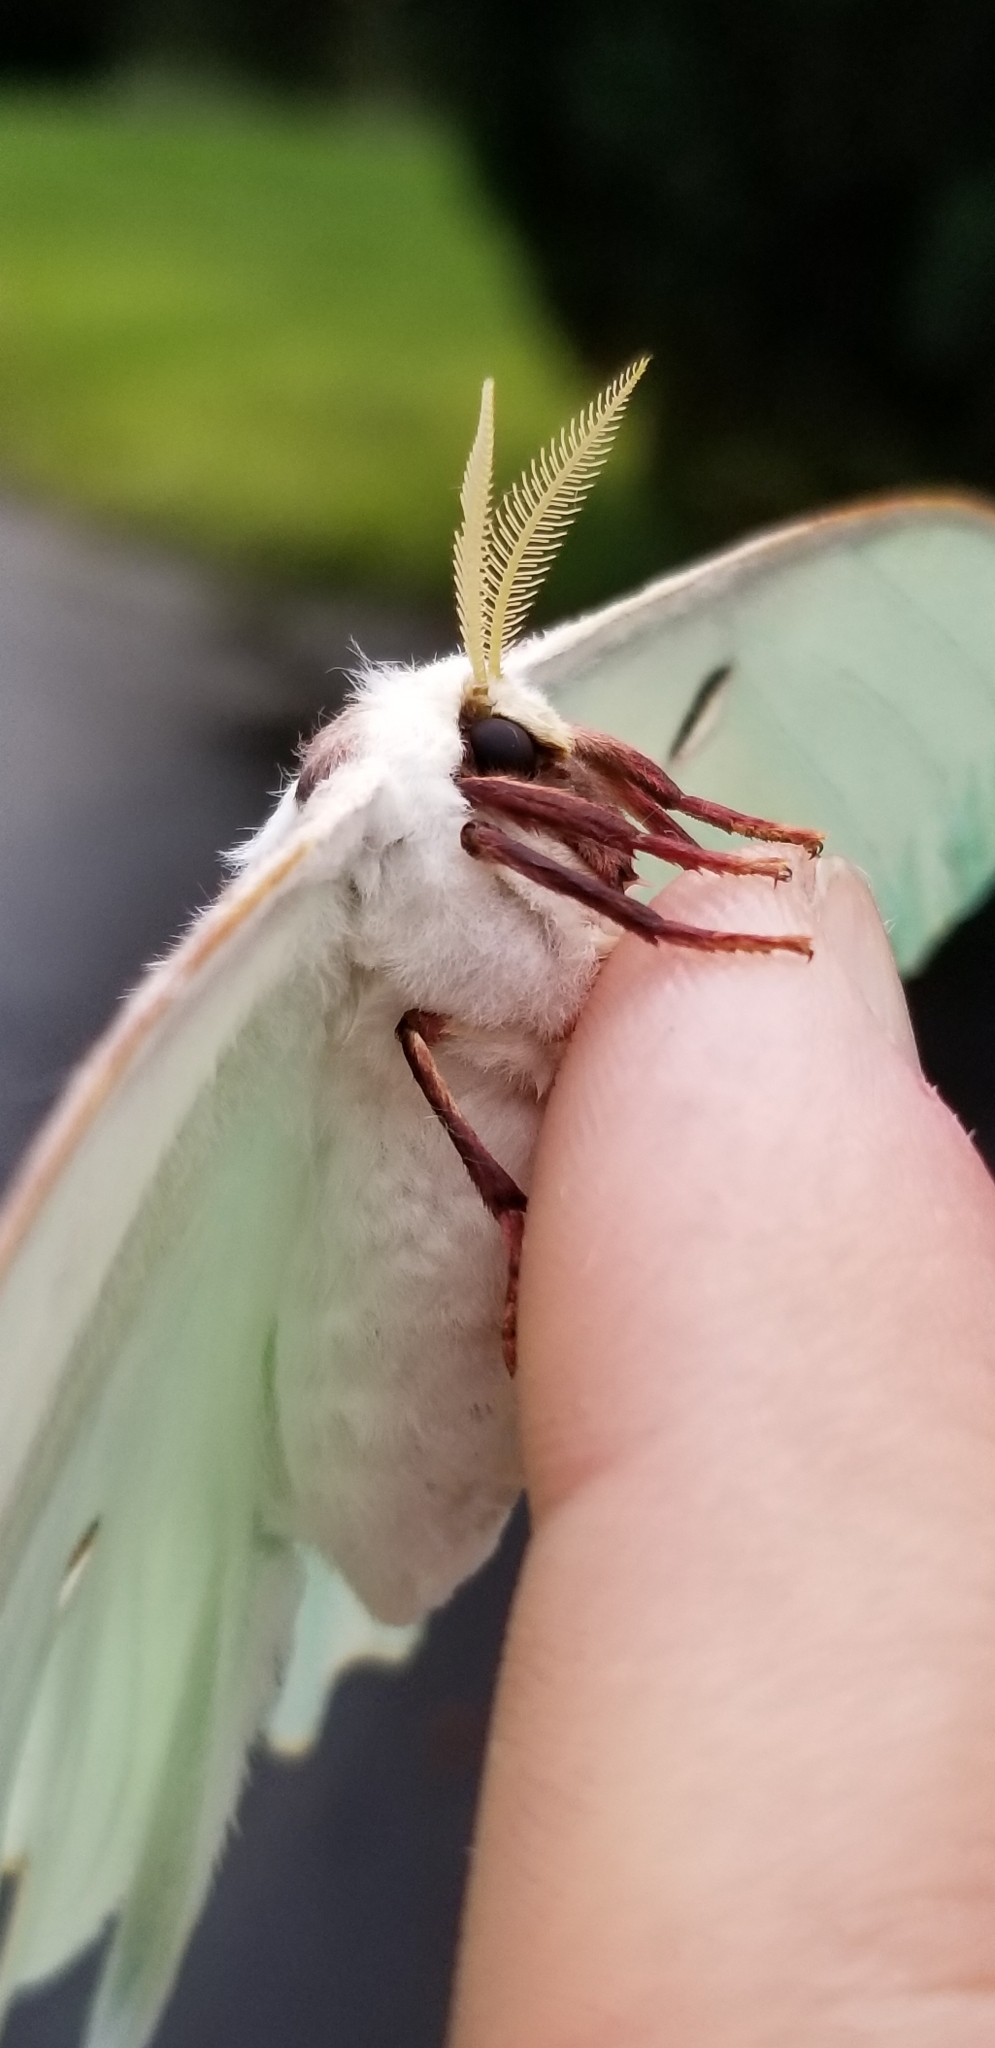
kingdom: Animalia
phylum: Arthropoda
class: Insecta
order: Lepidoptera
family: Saturniidae
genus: Actias
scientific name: Actias luna
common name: Luna moth
